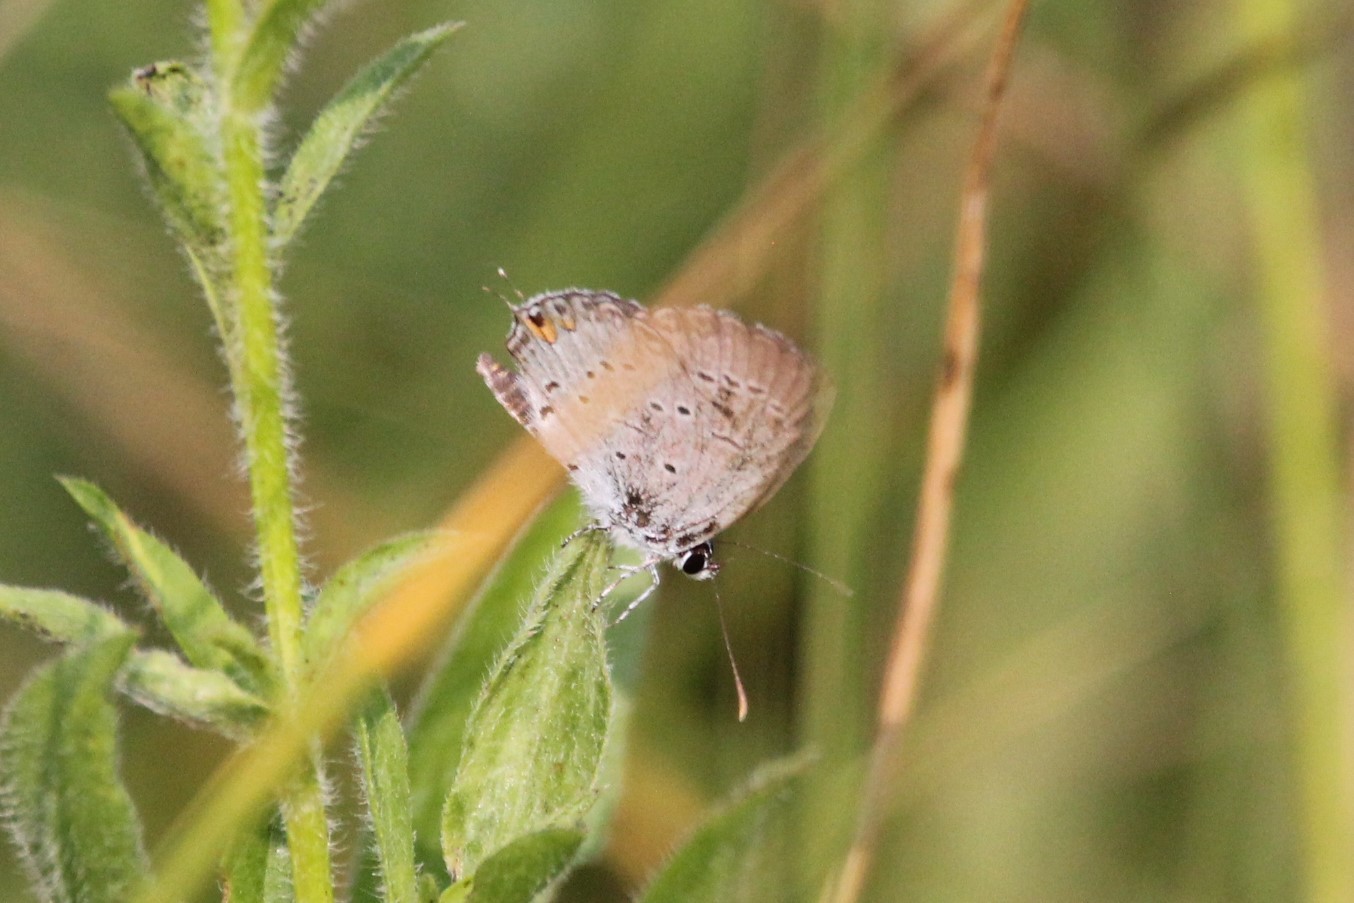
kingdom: Animalia
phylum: Arthropoda
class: Insecta
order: Lepidoptera
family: Lycaenidae
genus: Elkalyce
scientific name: Elkalyce comyntas
